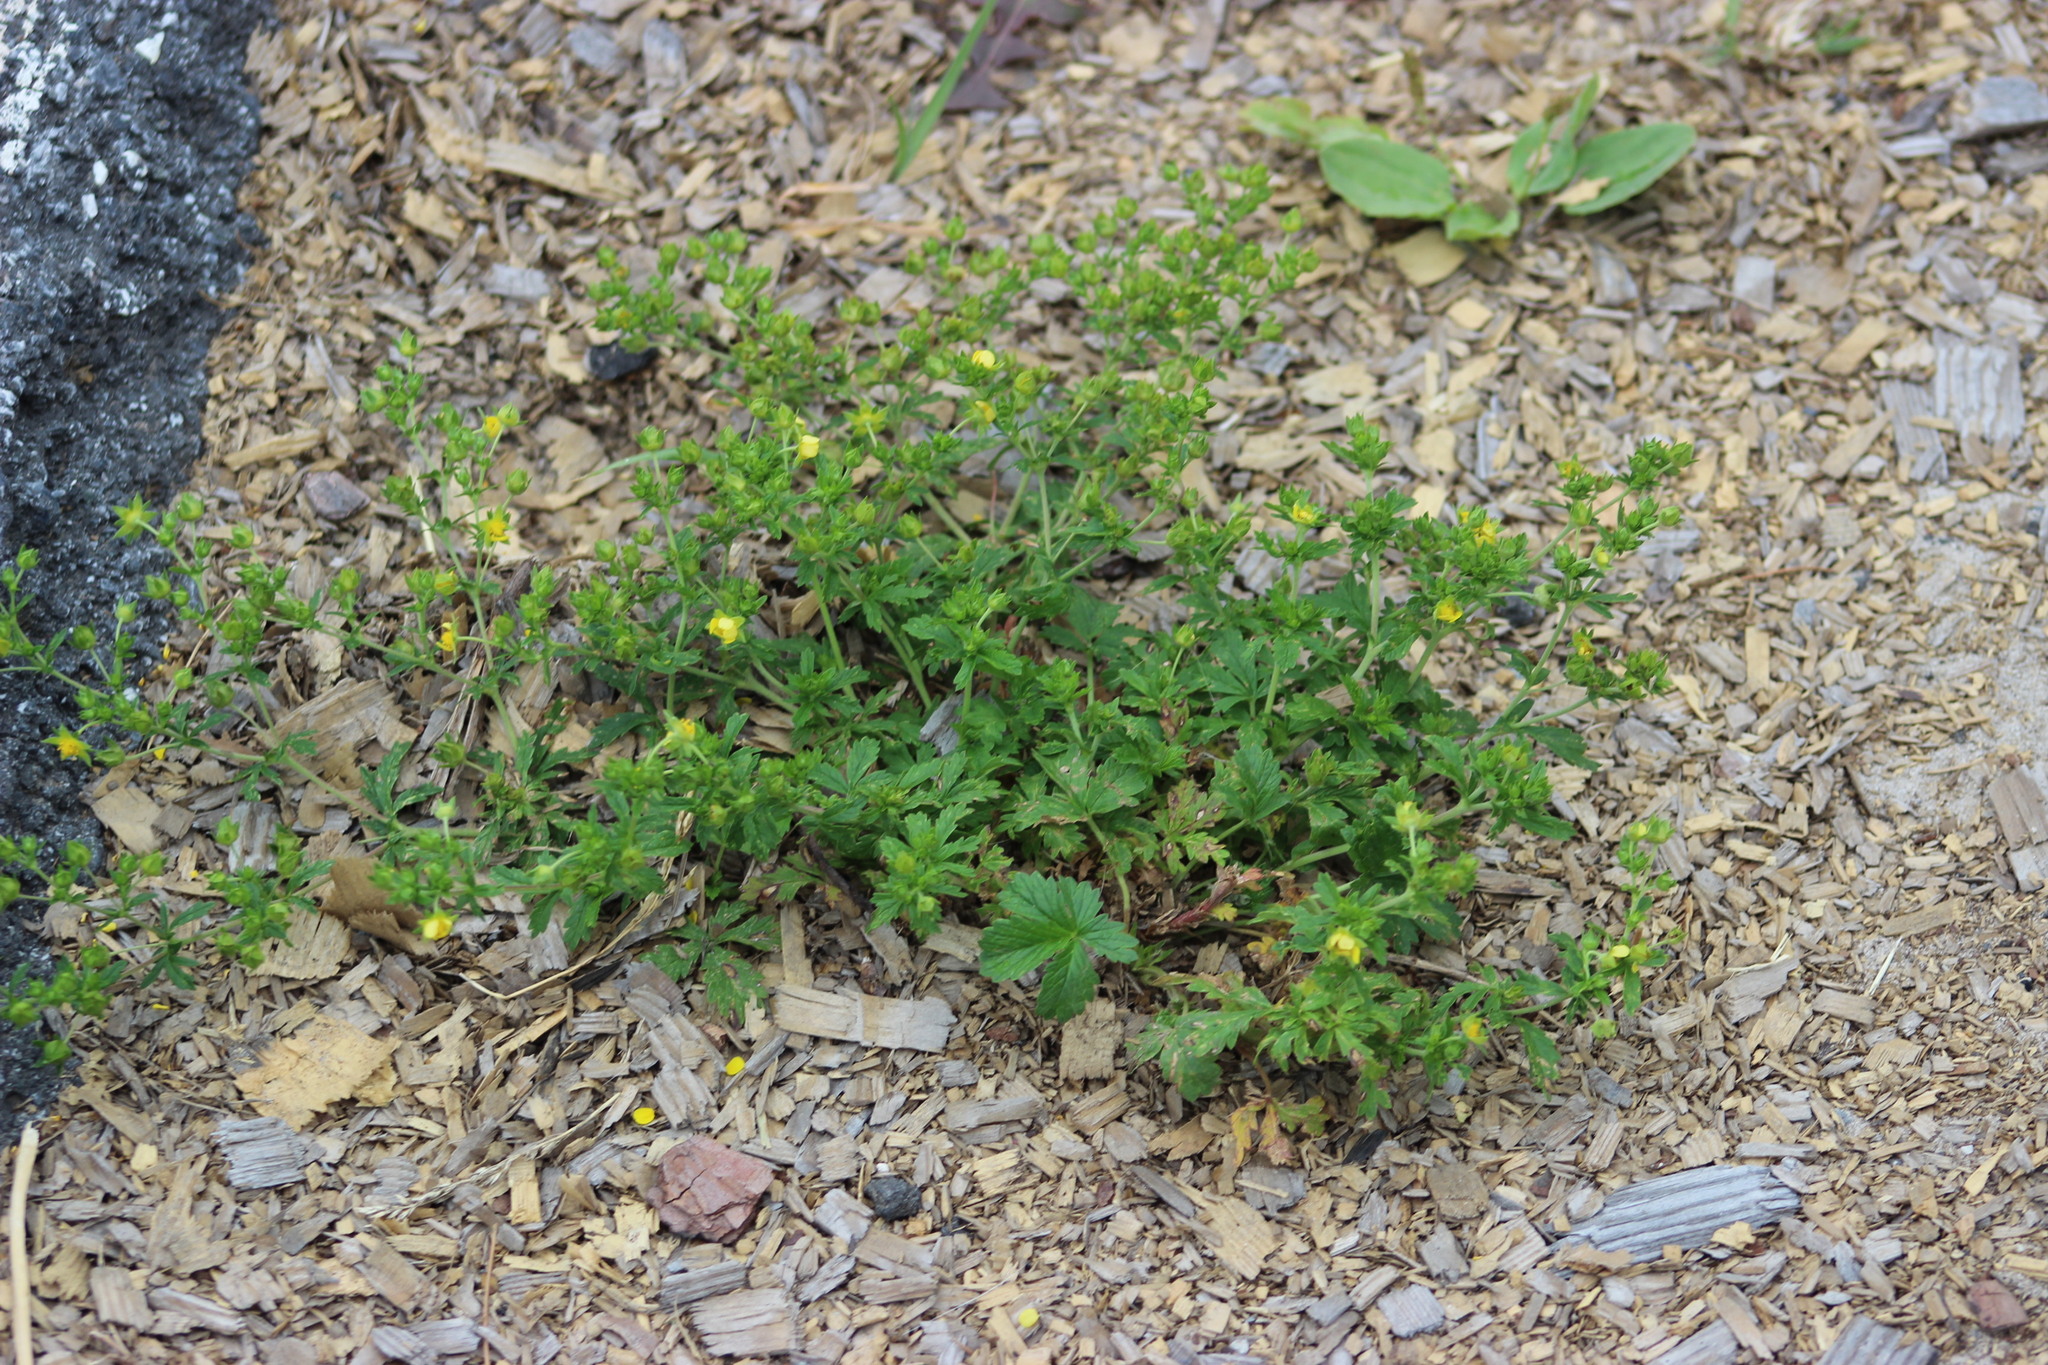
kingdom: Plantae
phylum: Tracheophyta
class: Magnoliopsida
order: Rosales
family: Rosaceae
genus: Potentilla
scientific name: Potentilla intermedia
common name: Downy cinquefoil
